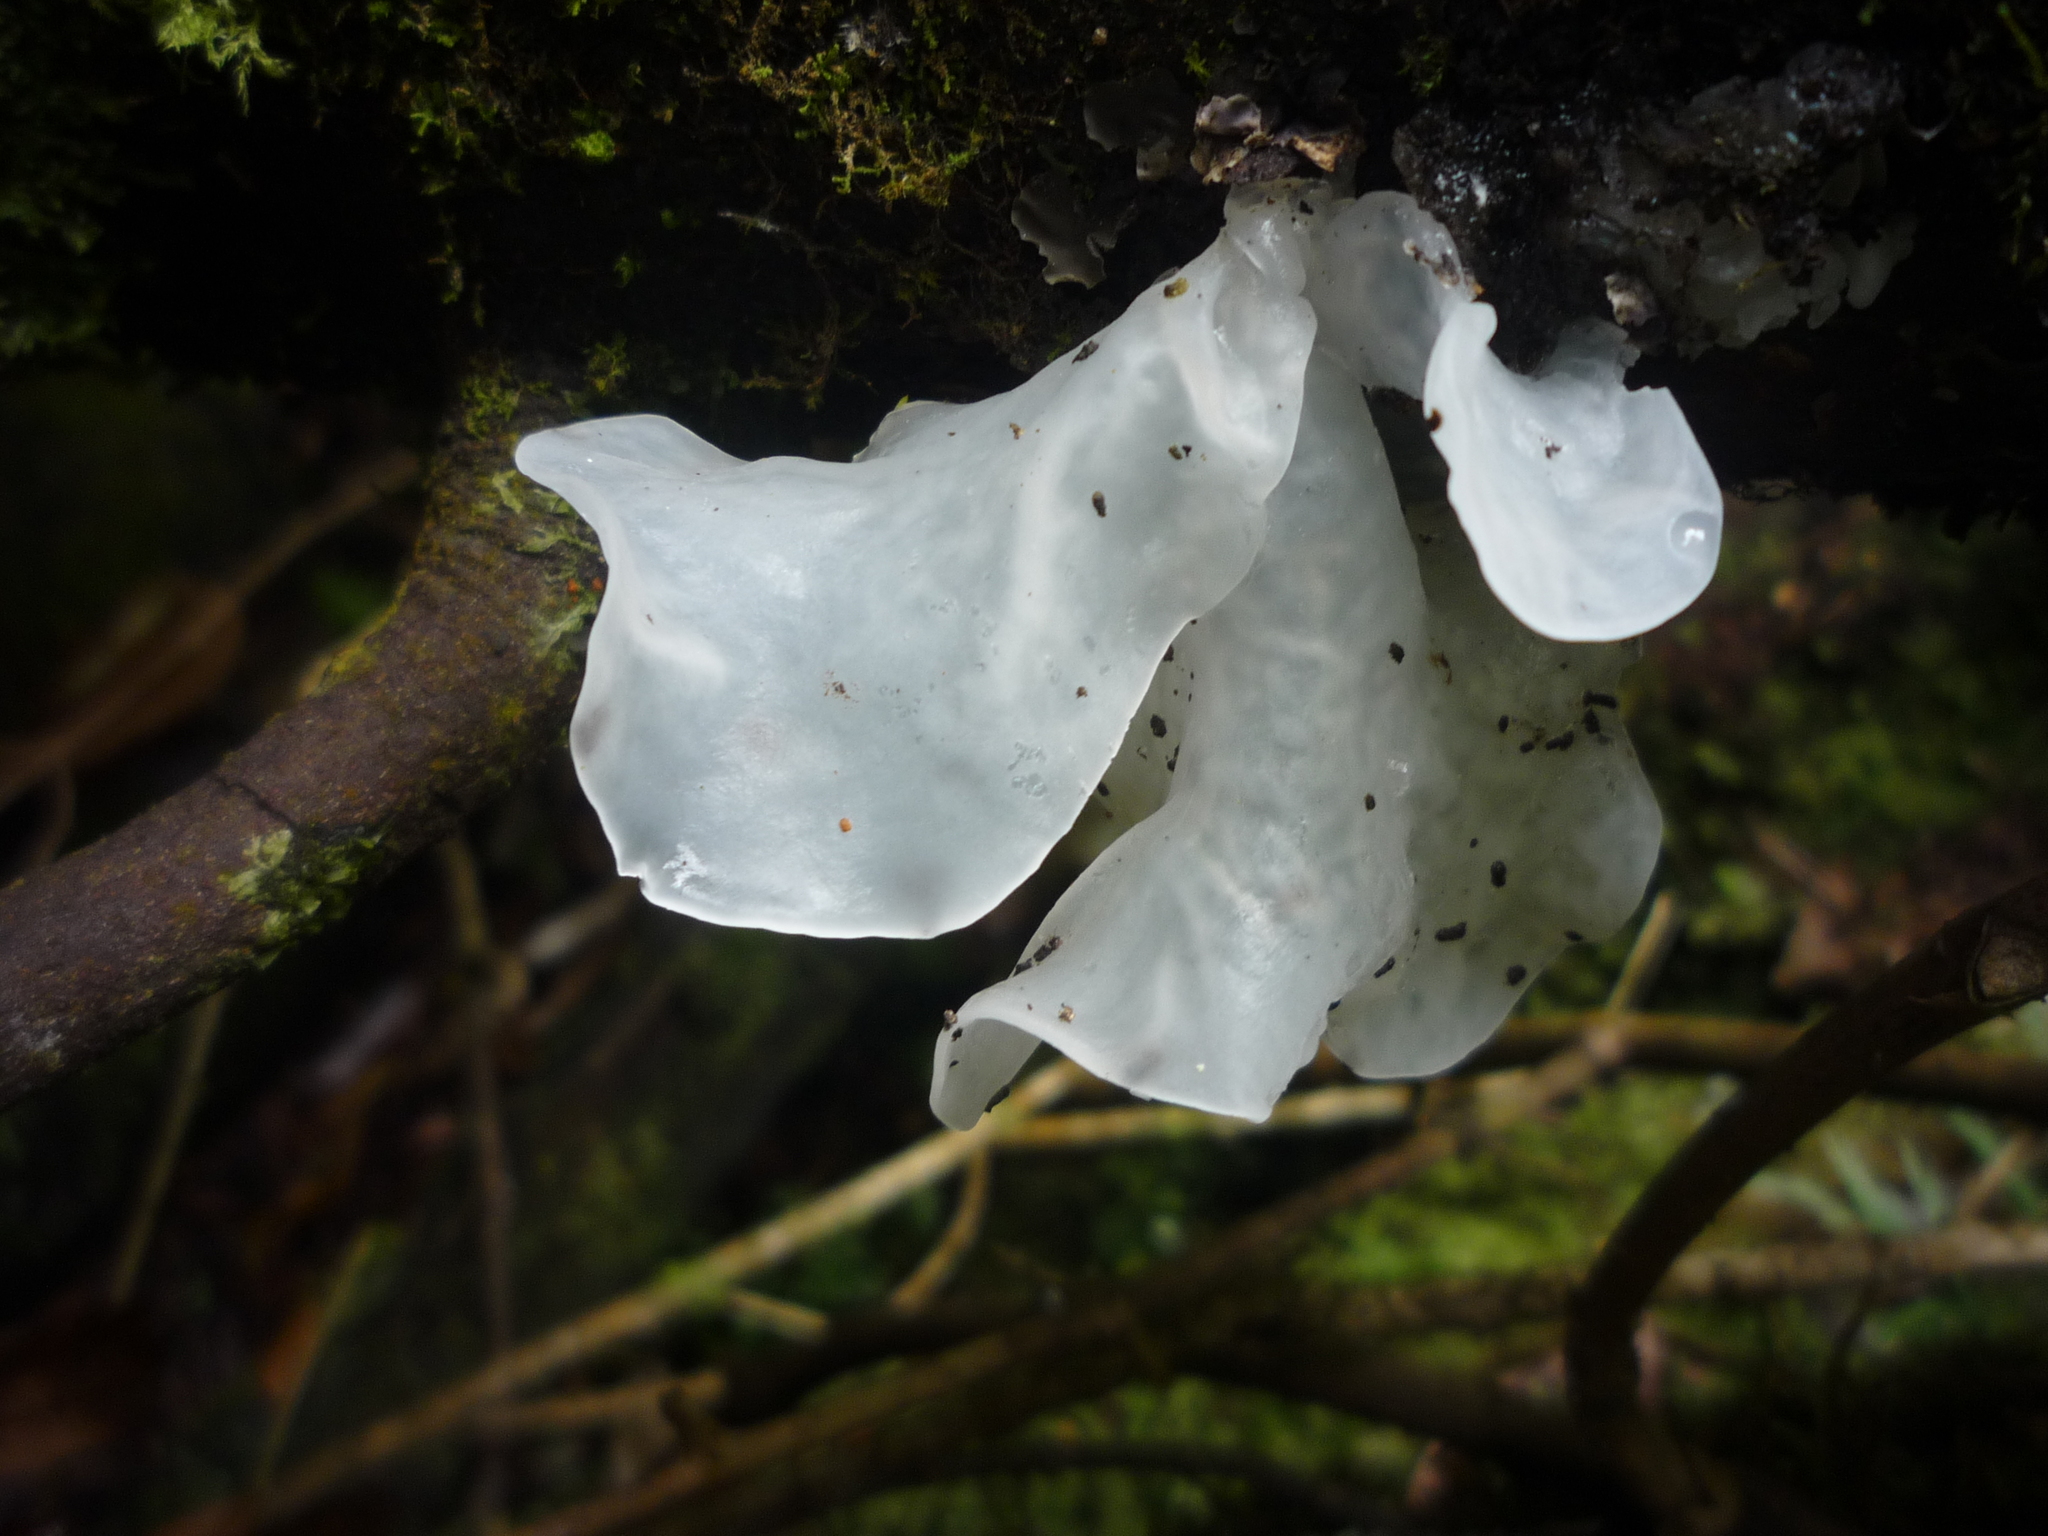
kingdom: Fungi
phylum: Basidiomycota
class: Tremellomycetes
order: Tremellales
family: Tremellaceae
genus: Tremella
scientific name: Tremella fuciformis
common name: Snow fungus
